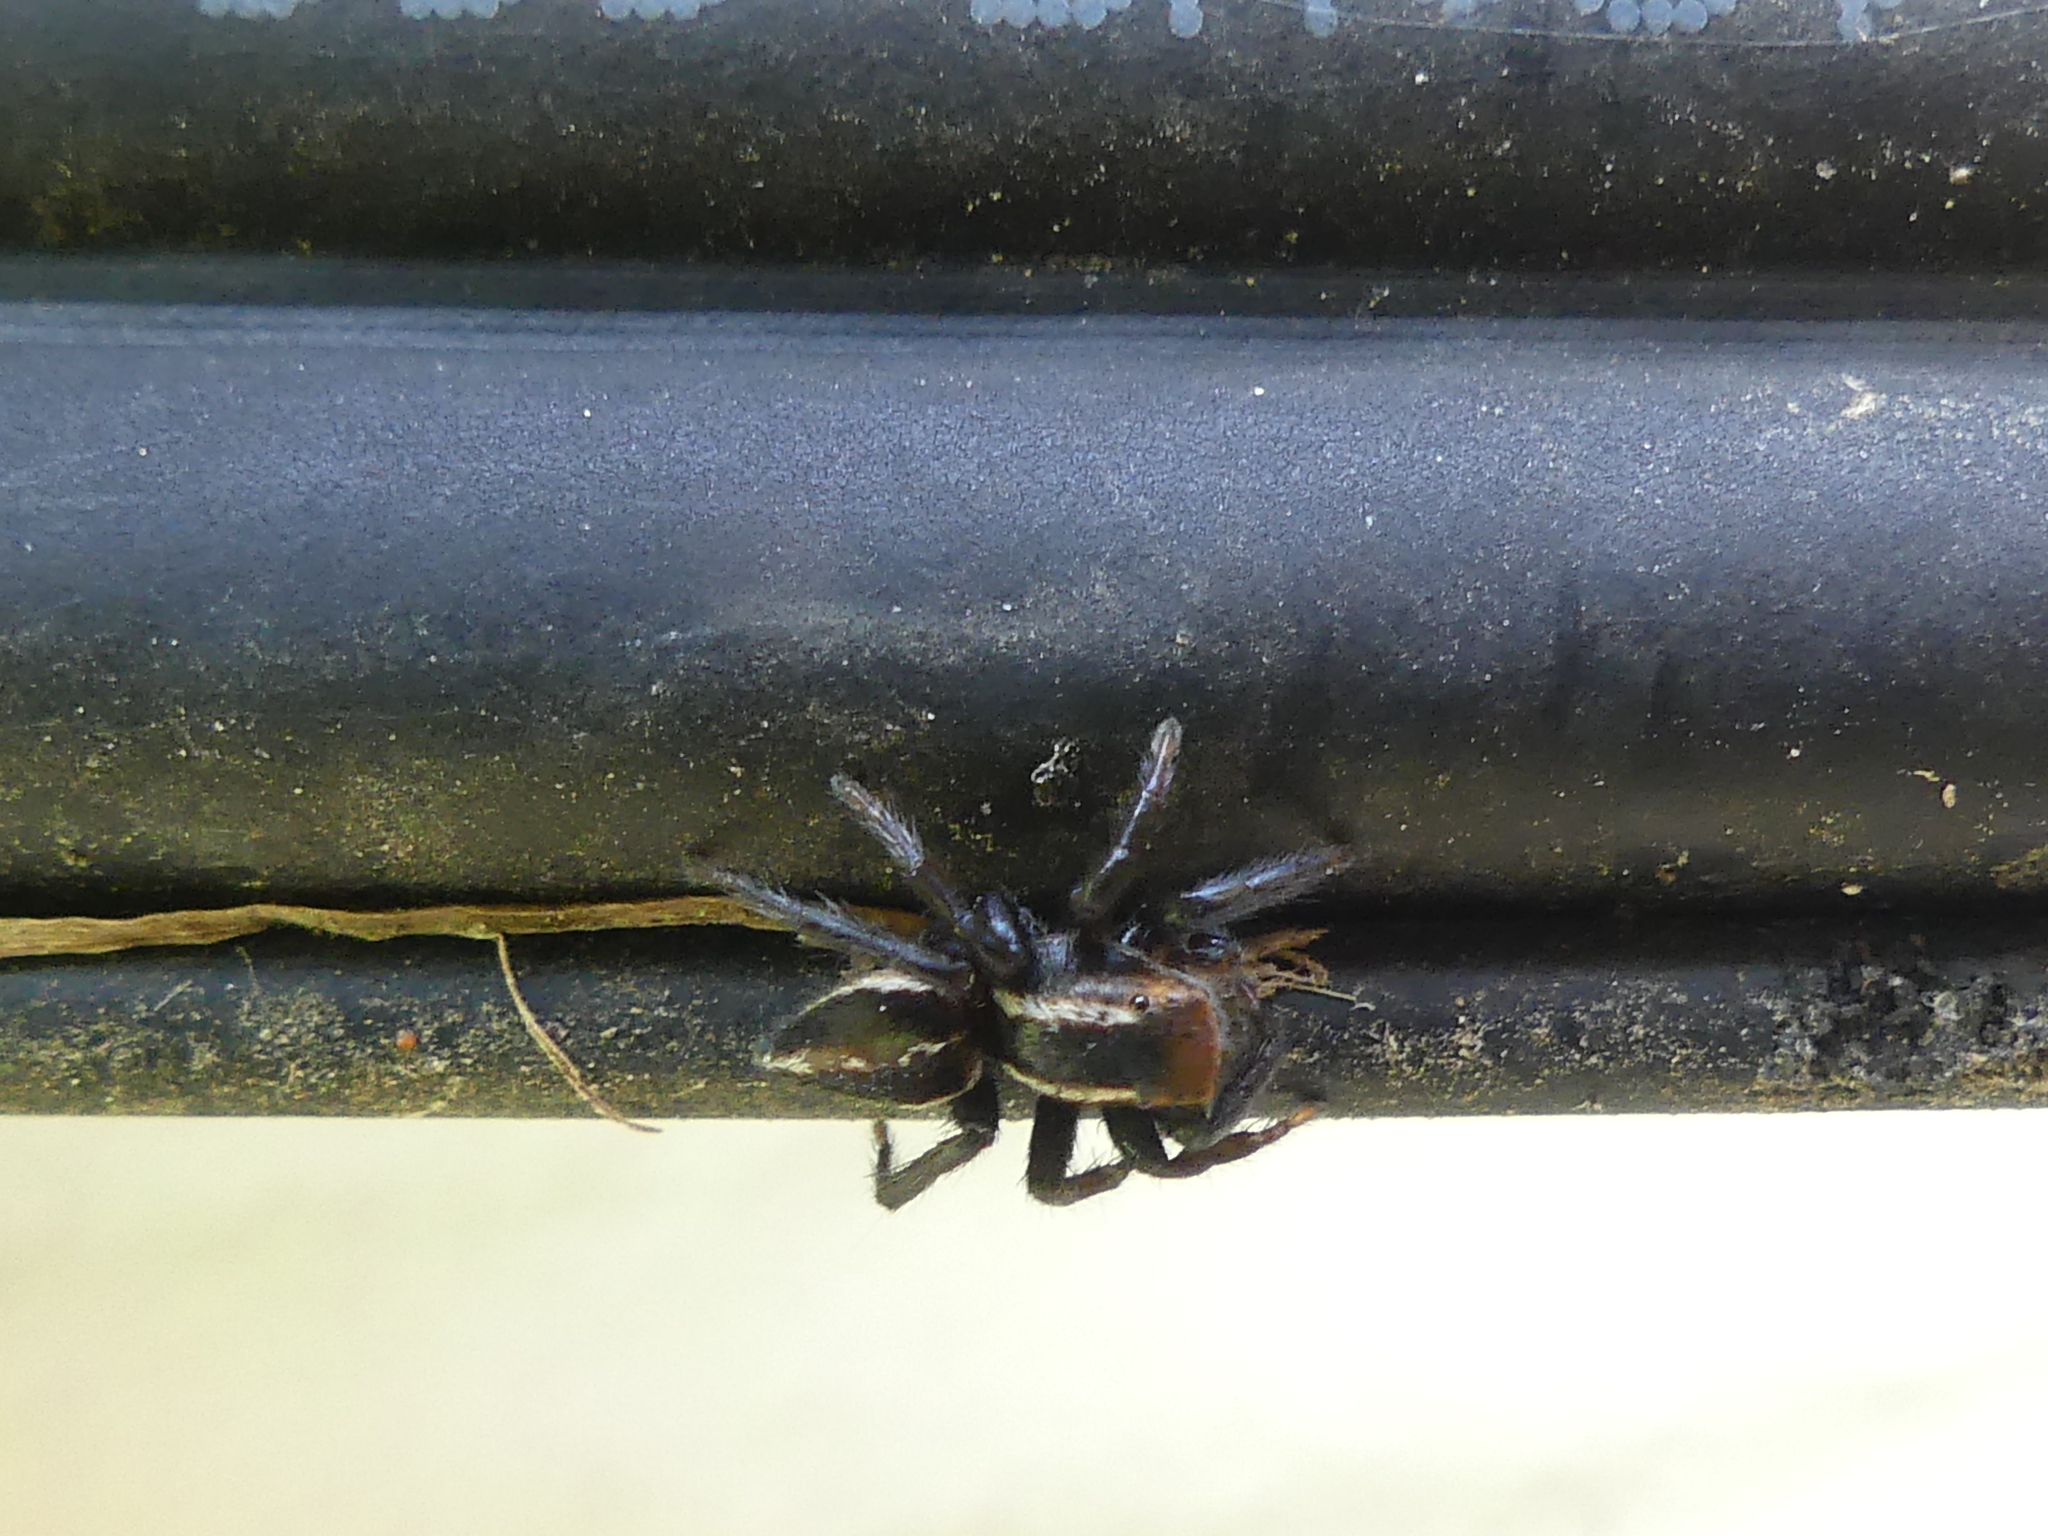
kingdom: Animalia
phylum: Arthropoda
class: Arachnida
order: Araneae
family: Salticidae
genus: Phlegra
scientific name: Phlegra hentzi
